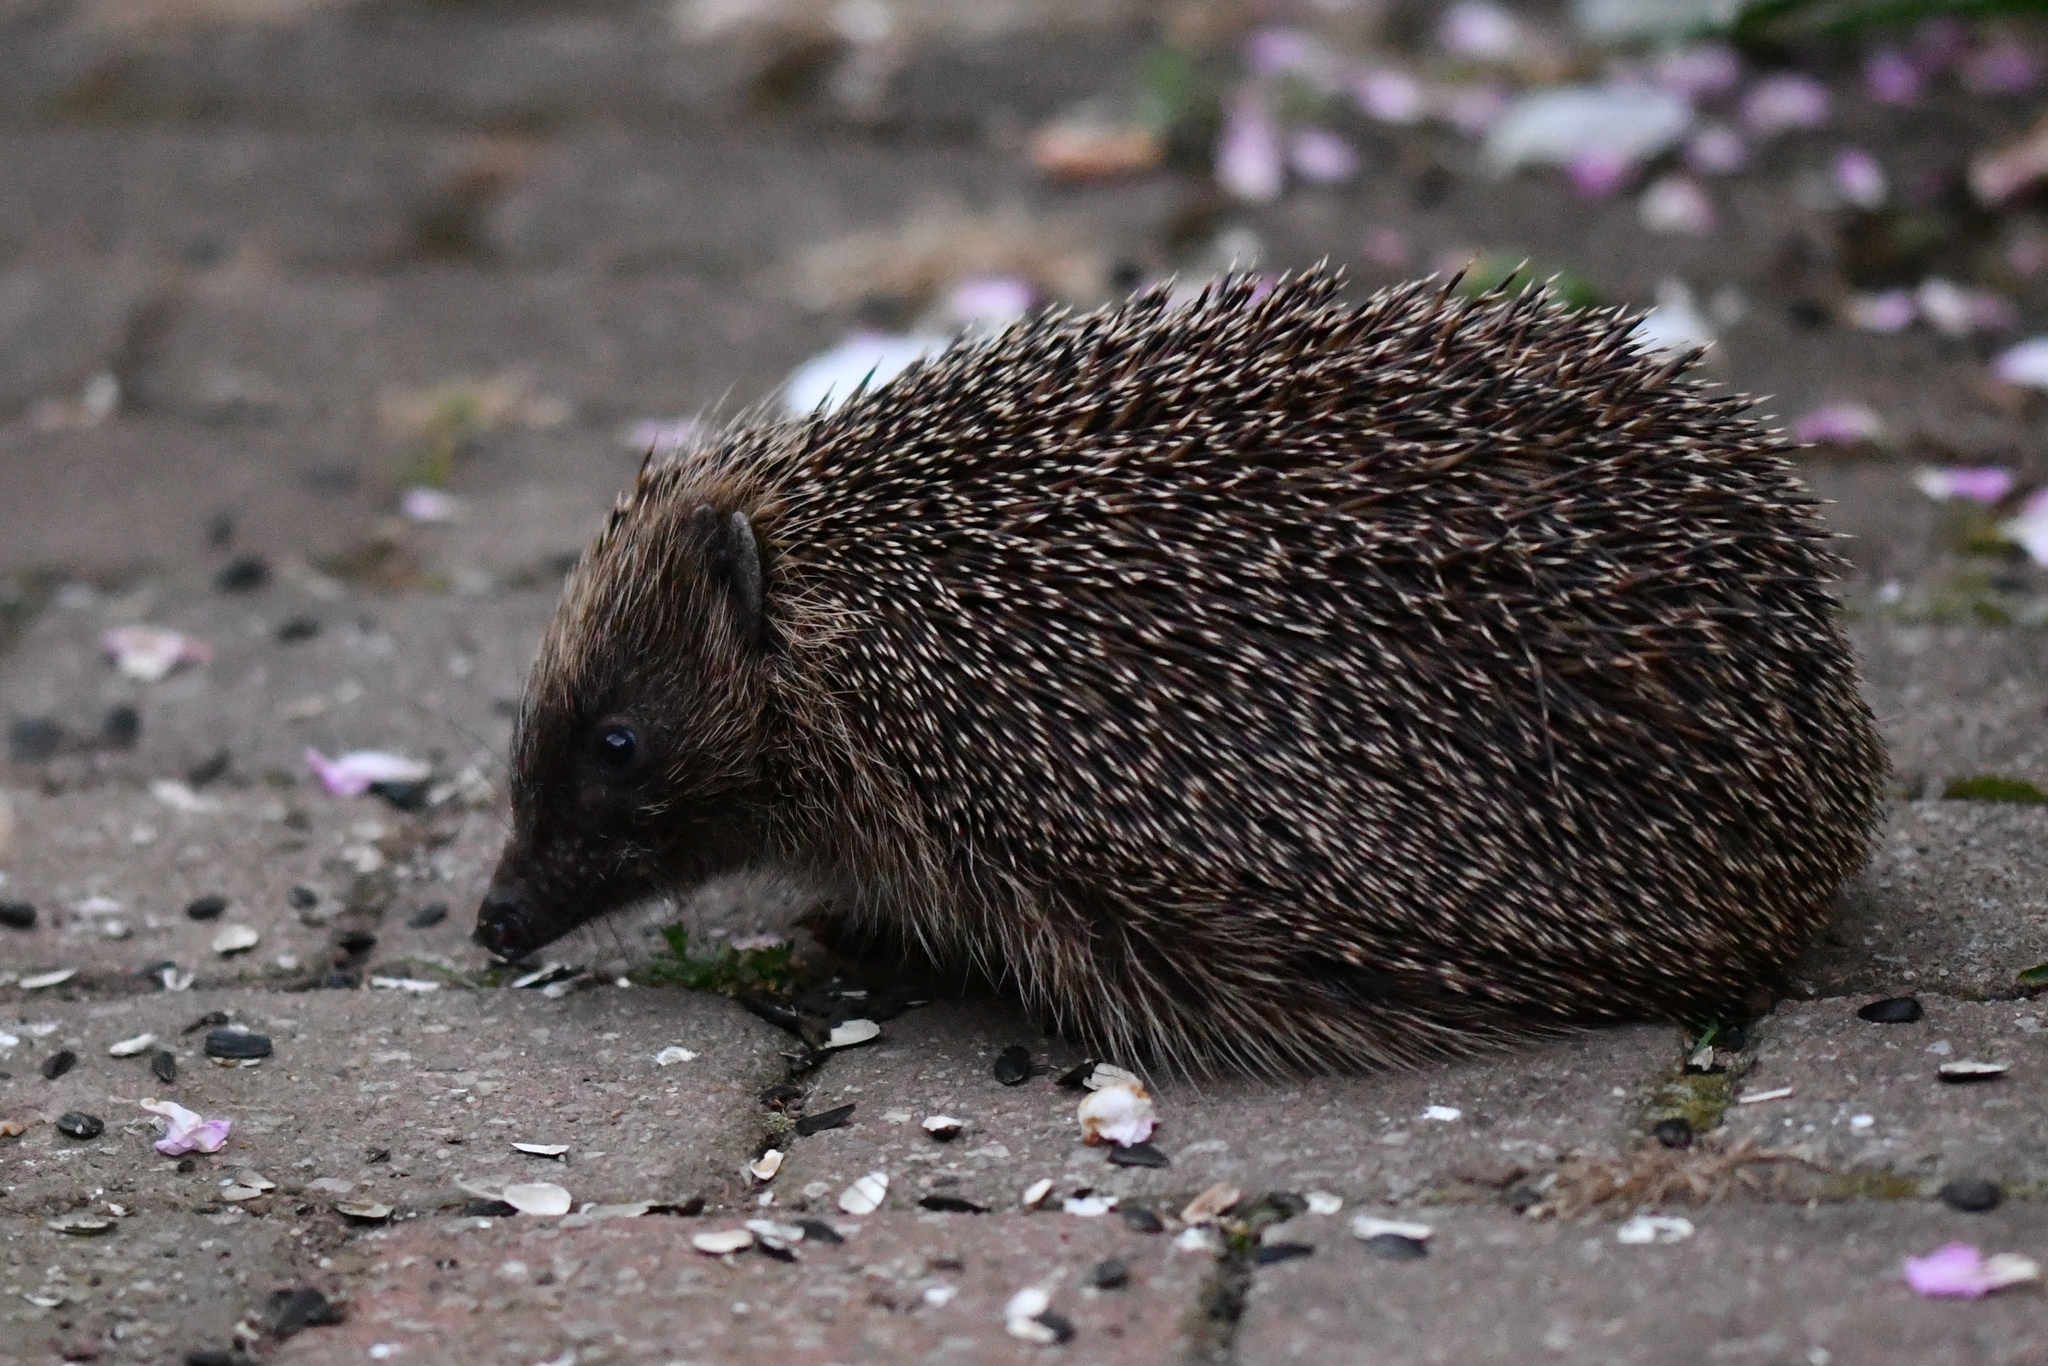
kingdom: Animalia
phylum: Chordata
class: Mammalia
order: Erinaceomorpha
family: Erinaceidae
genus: Erinaceus
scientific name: Erinaceus europaeus
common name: West european hedgehog
